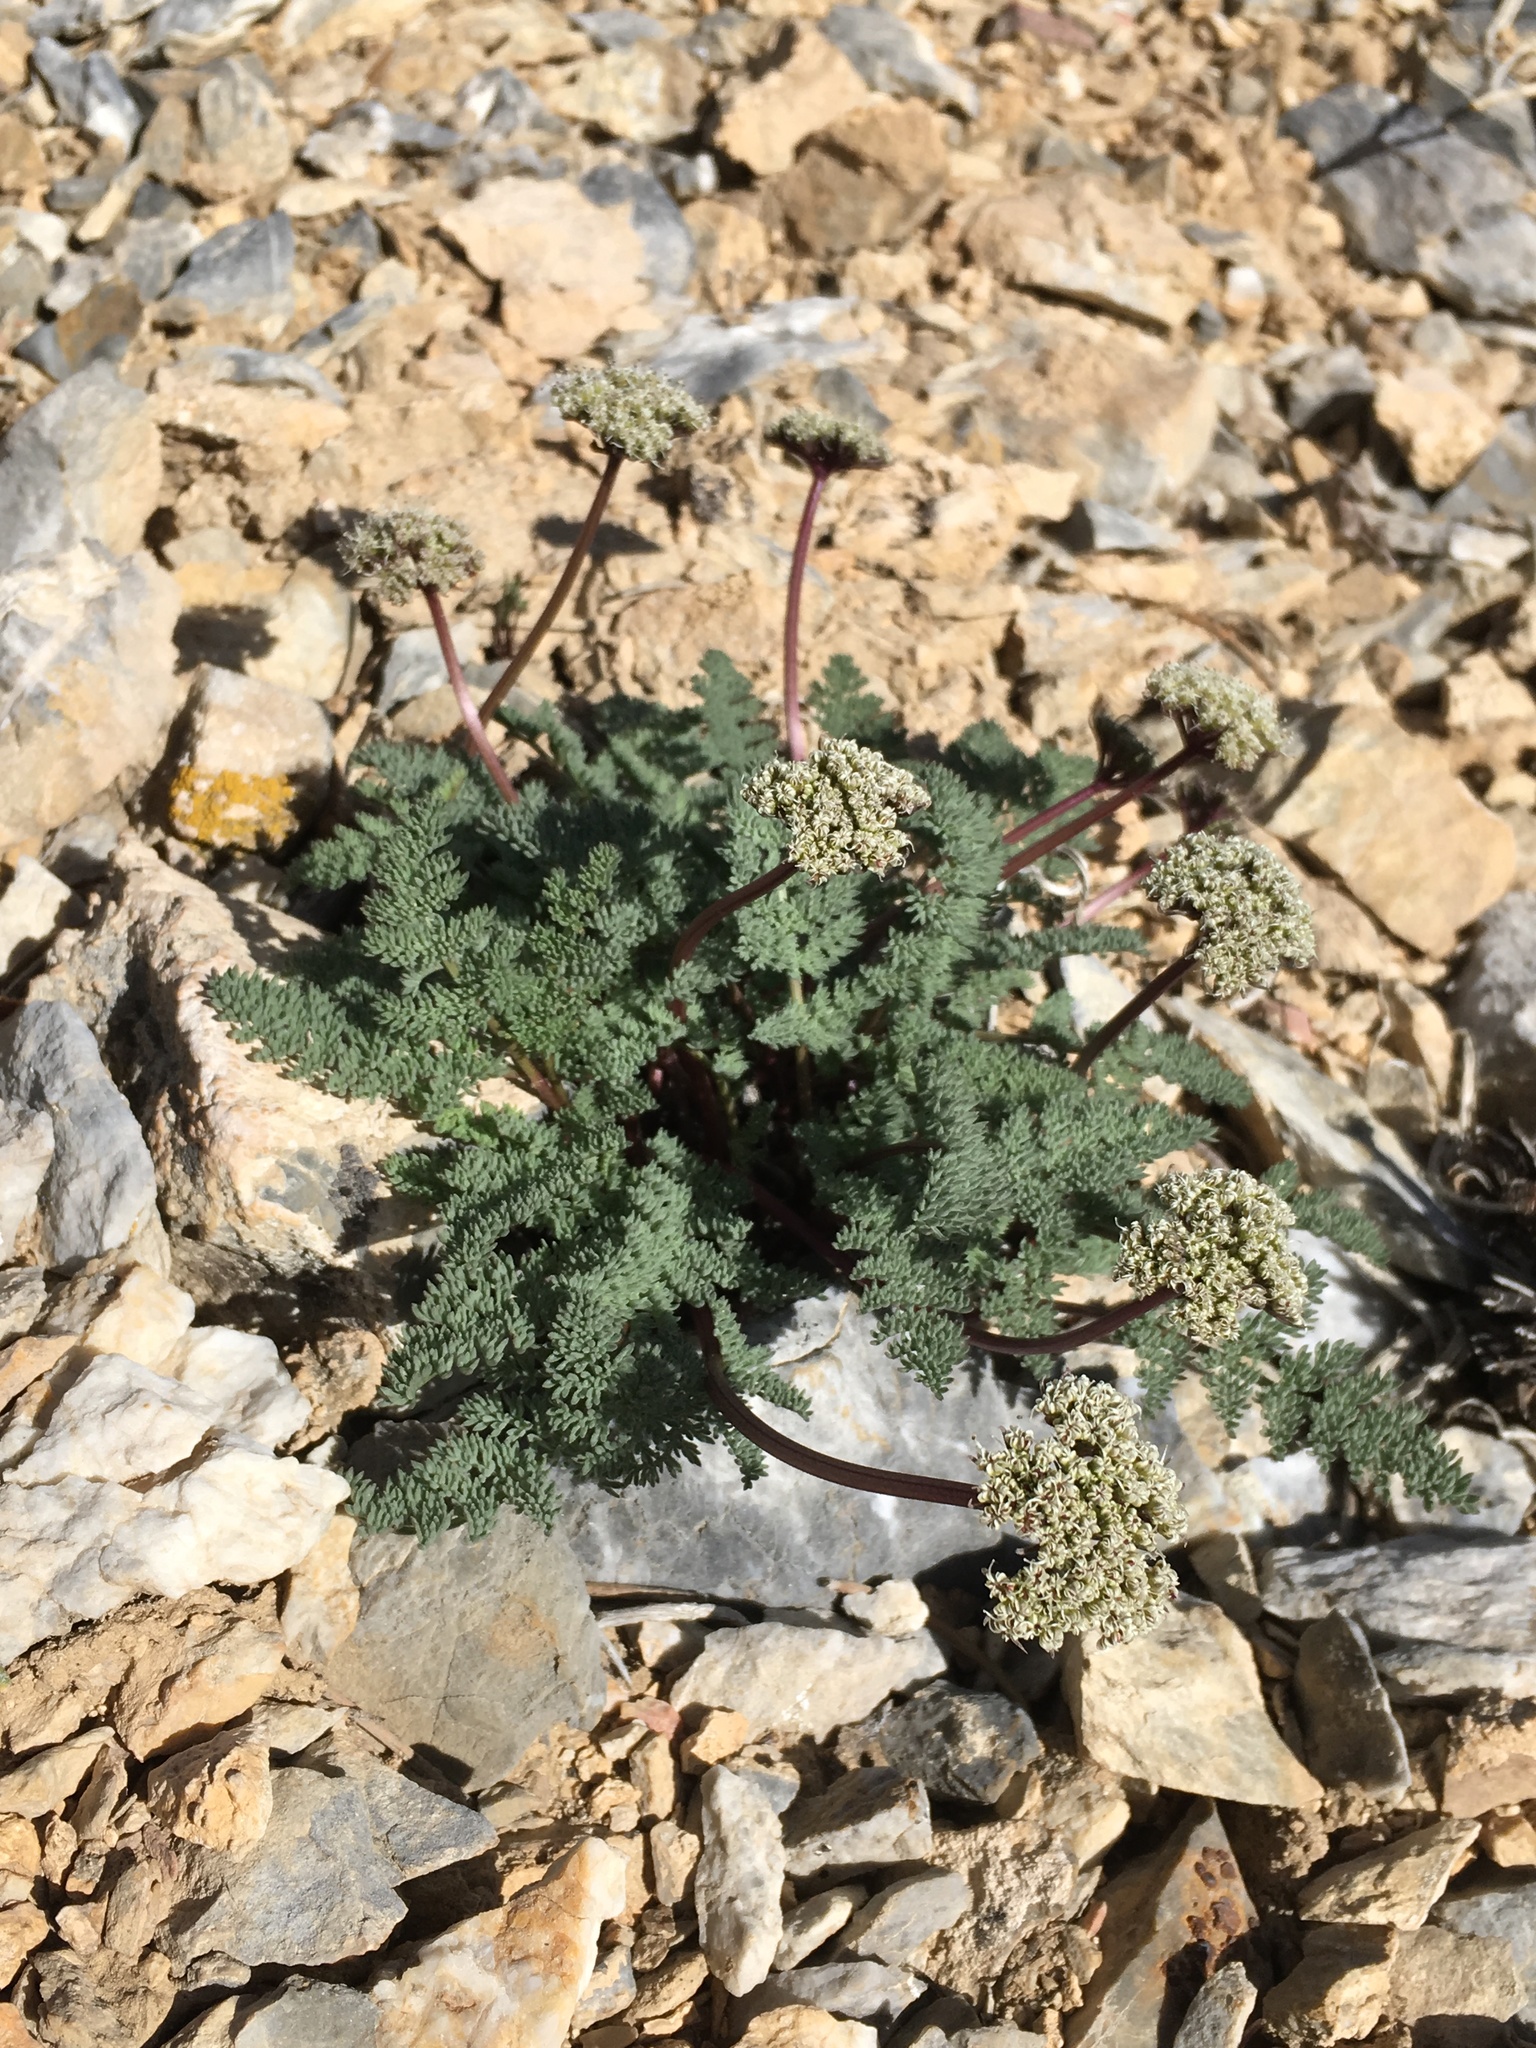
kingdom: Plantae
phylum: Tracheophyta
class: Magnoliopsida
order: Apiales
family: Apiaceae
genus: Aulospermum
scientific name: Aulospermum aboriginum
